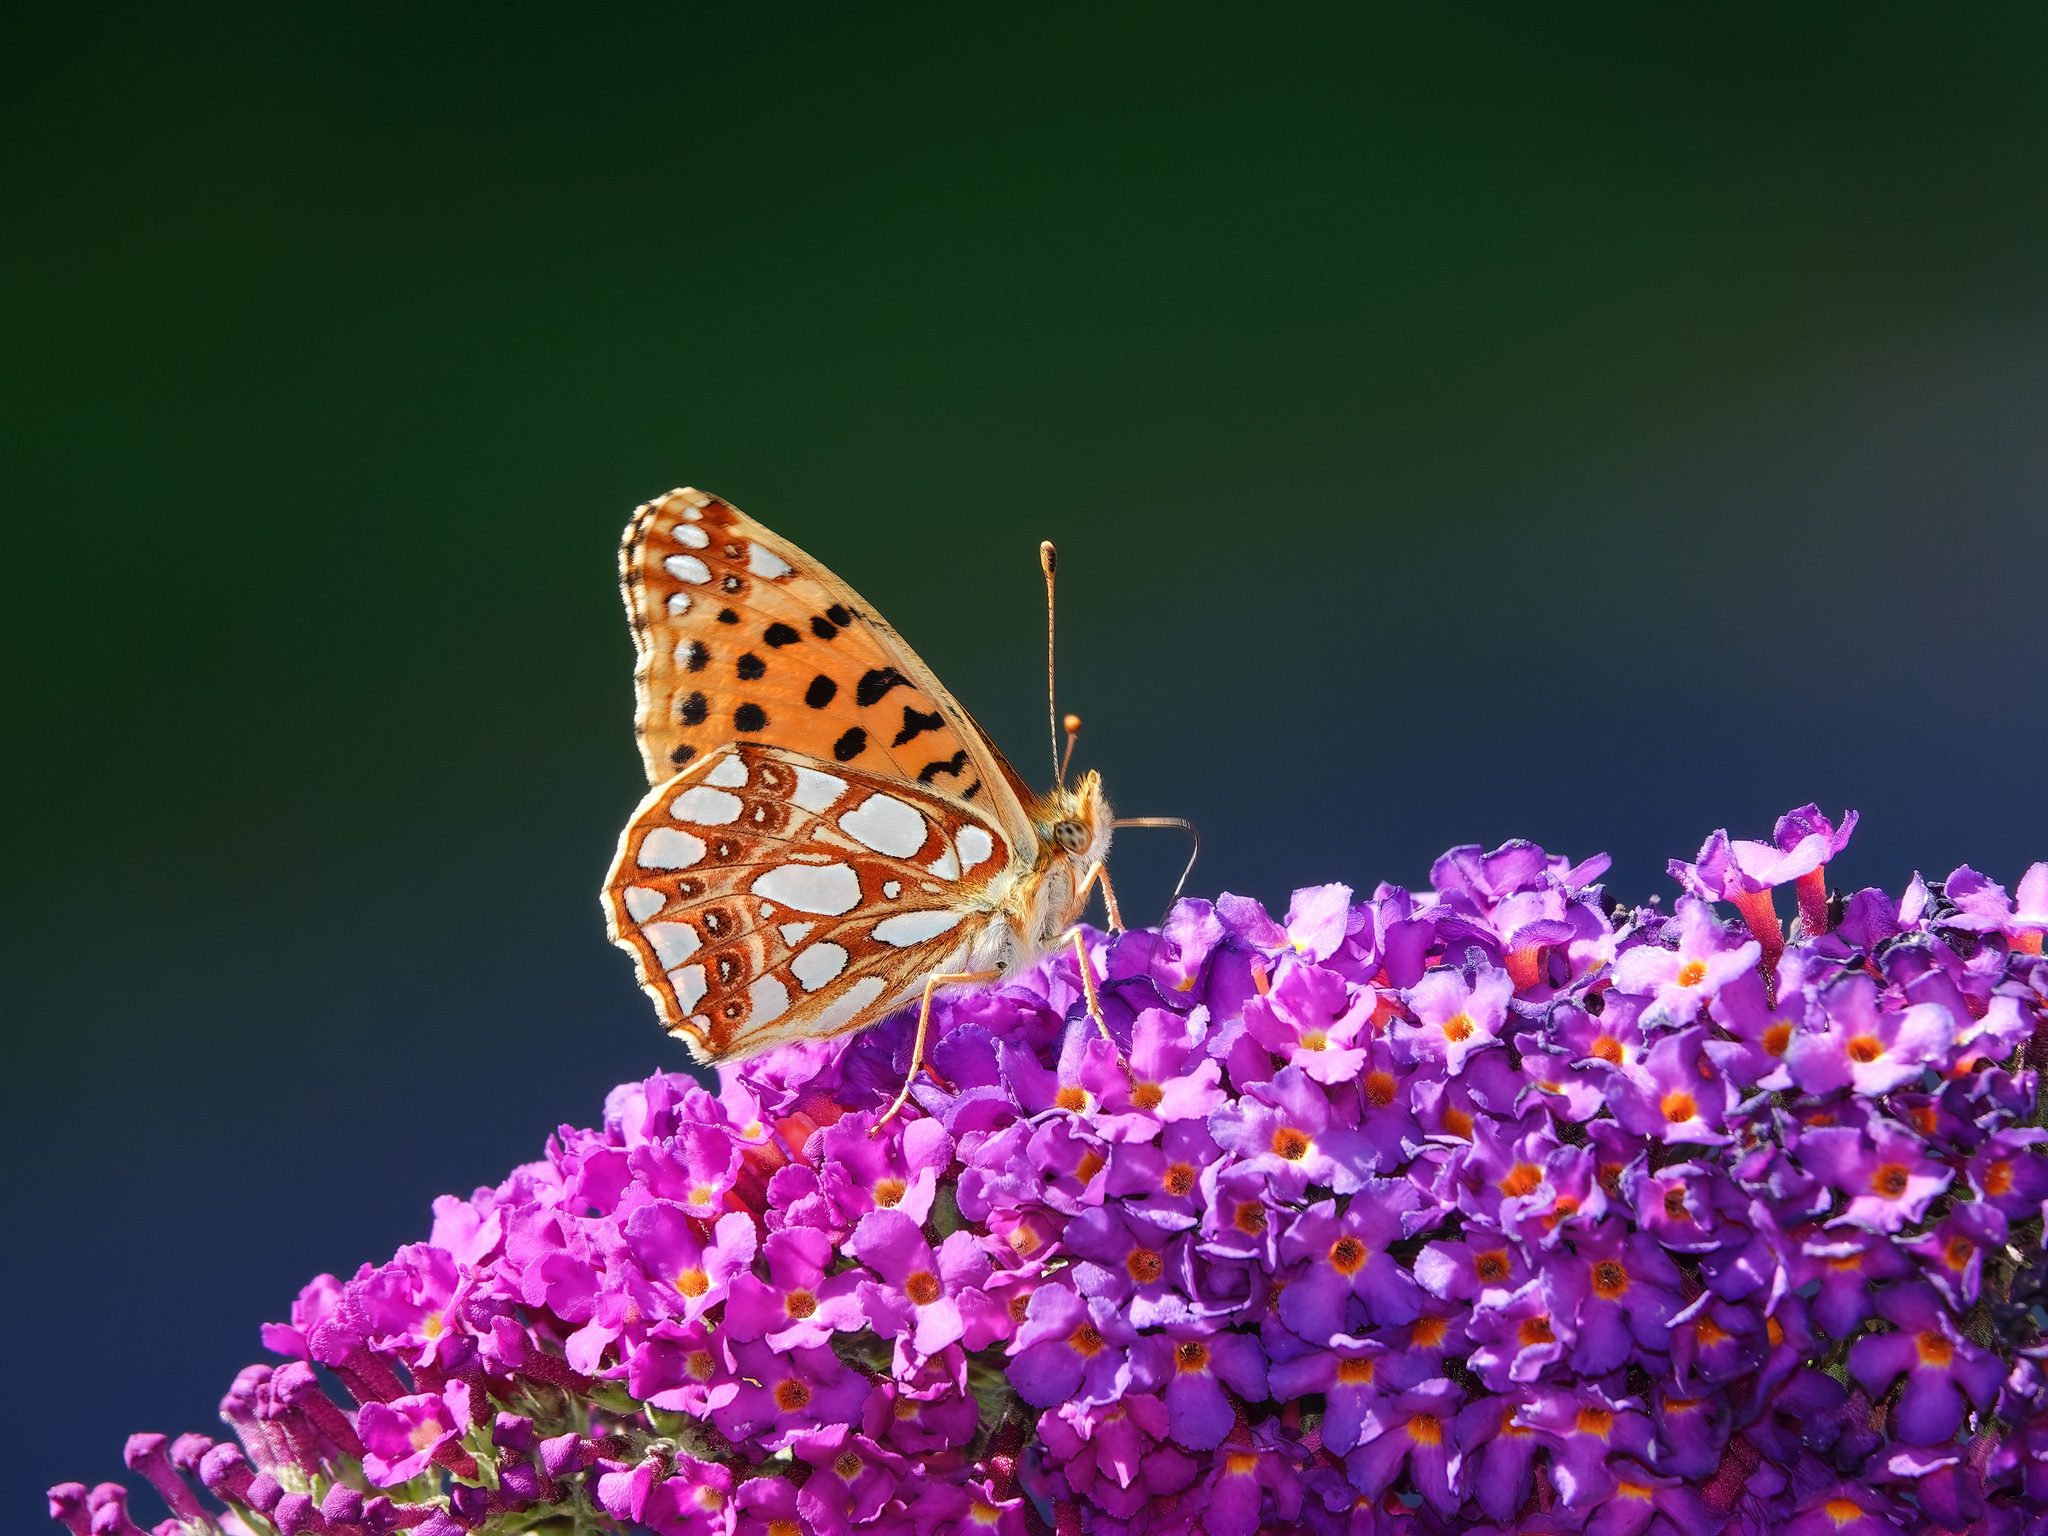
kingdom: Animalia
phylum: Arthropoda
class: Insecta
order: Lepidoptera
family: Nymphalidae
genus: Issoria
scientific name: Issoria lathonia
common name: Queen of spain fritillary
